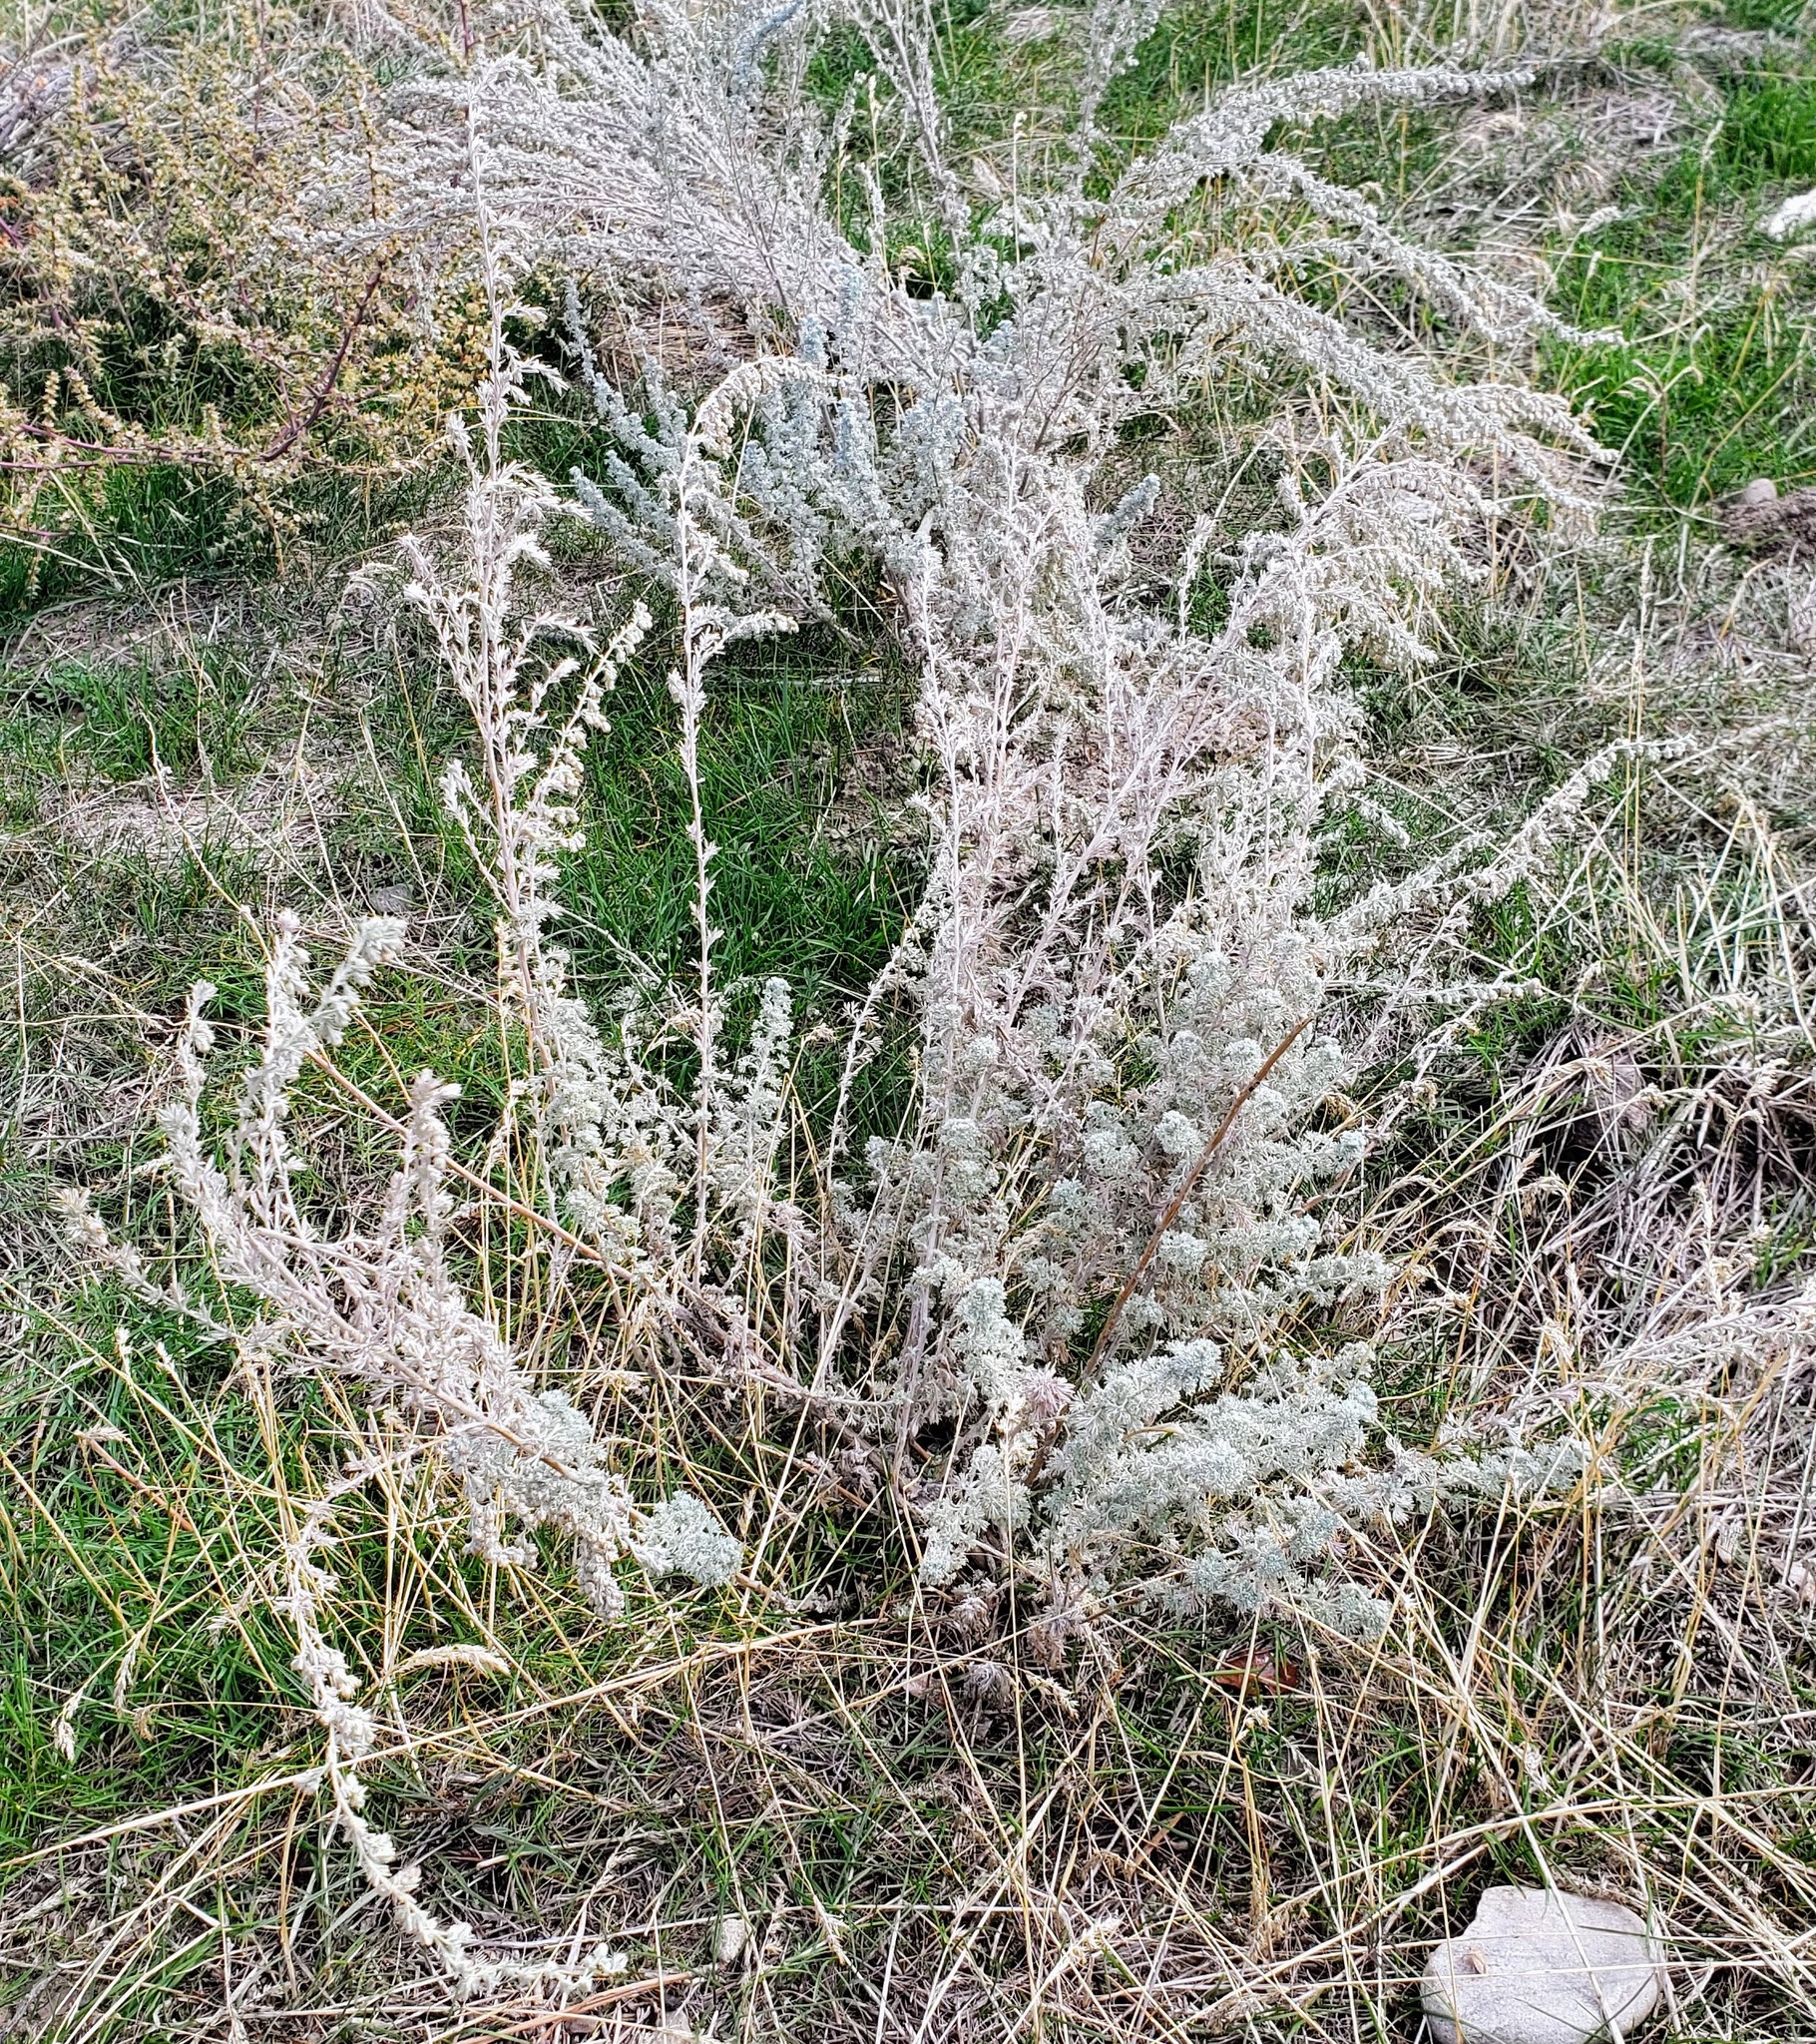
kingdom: Plantae
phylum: Tracheophyta
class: Magnoliopsida
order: Asterales
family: Asteraceae
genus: Artemisia
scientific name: Artemisia frigida
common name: Prairie sagewort
